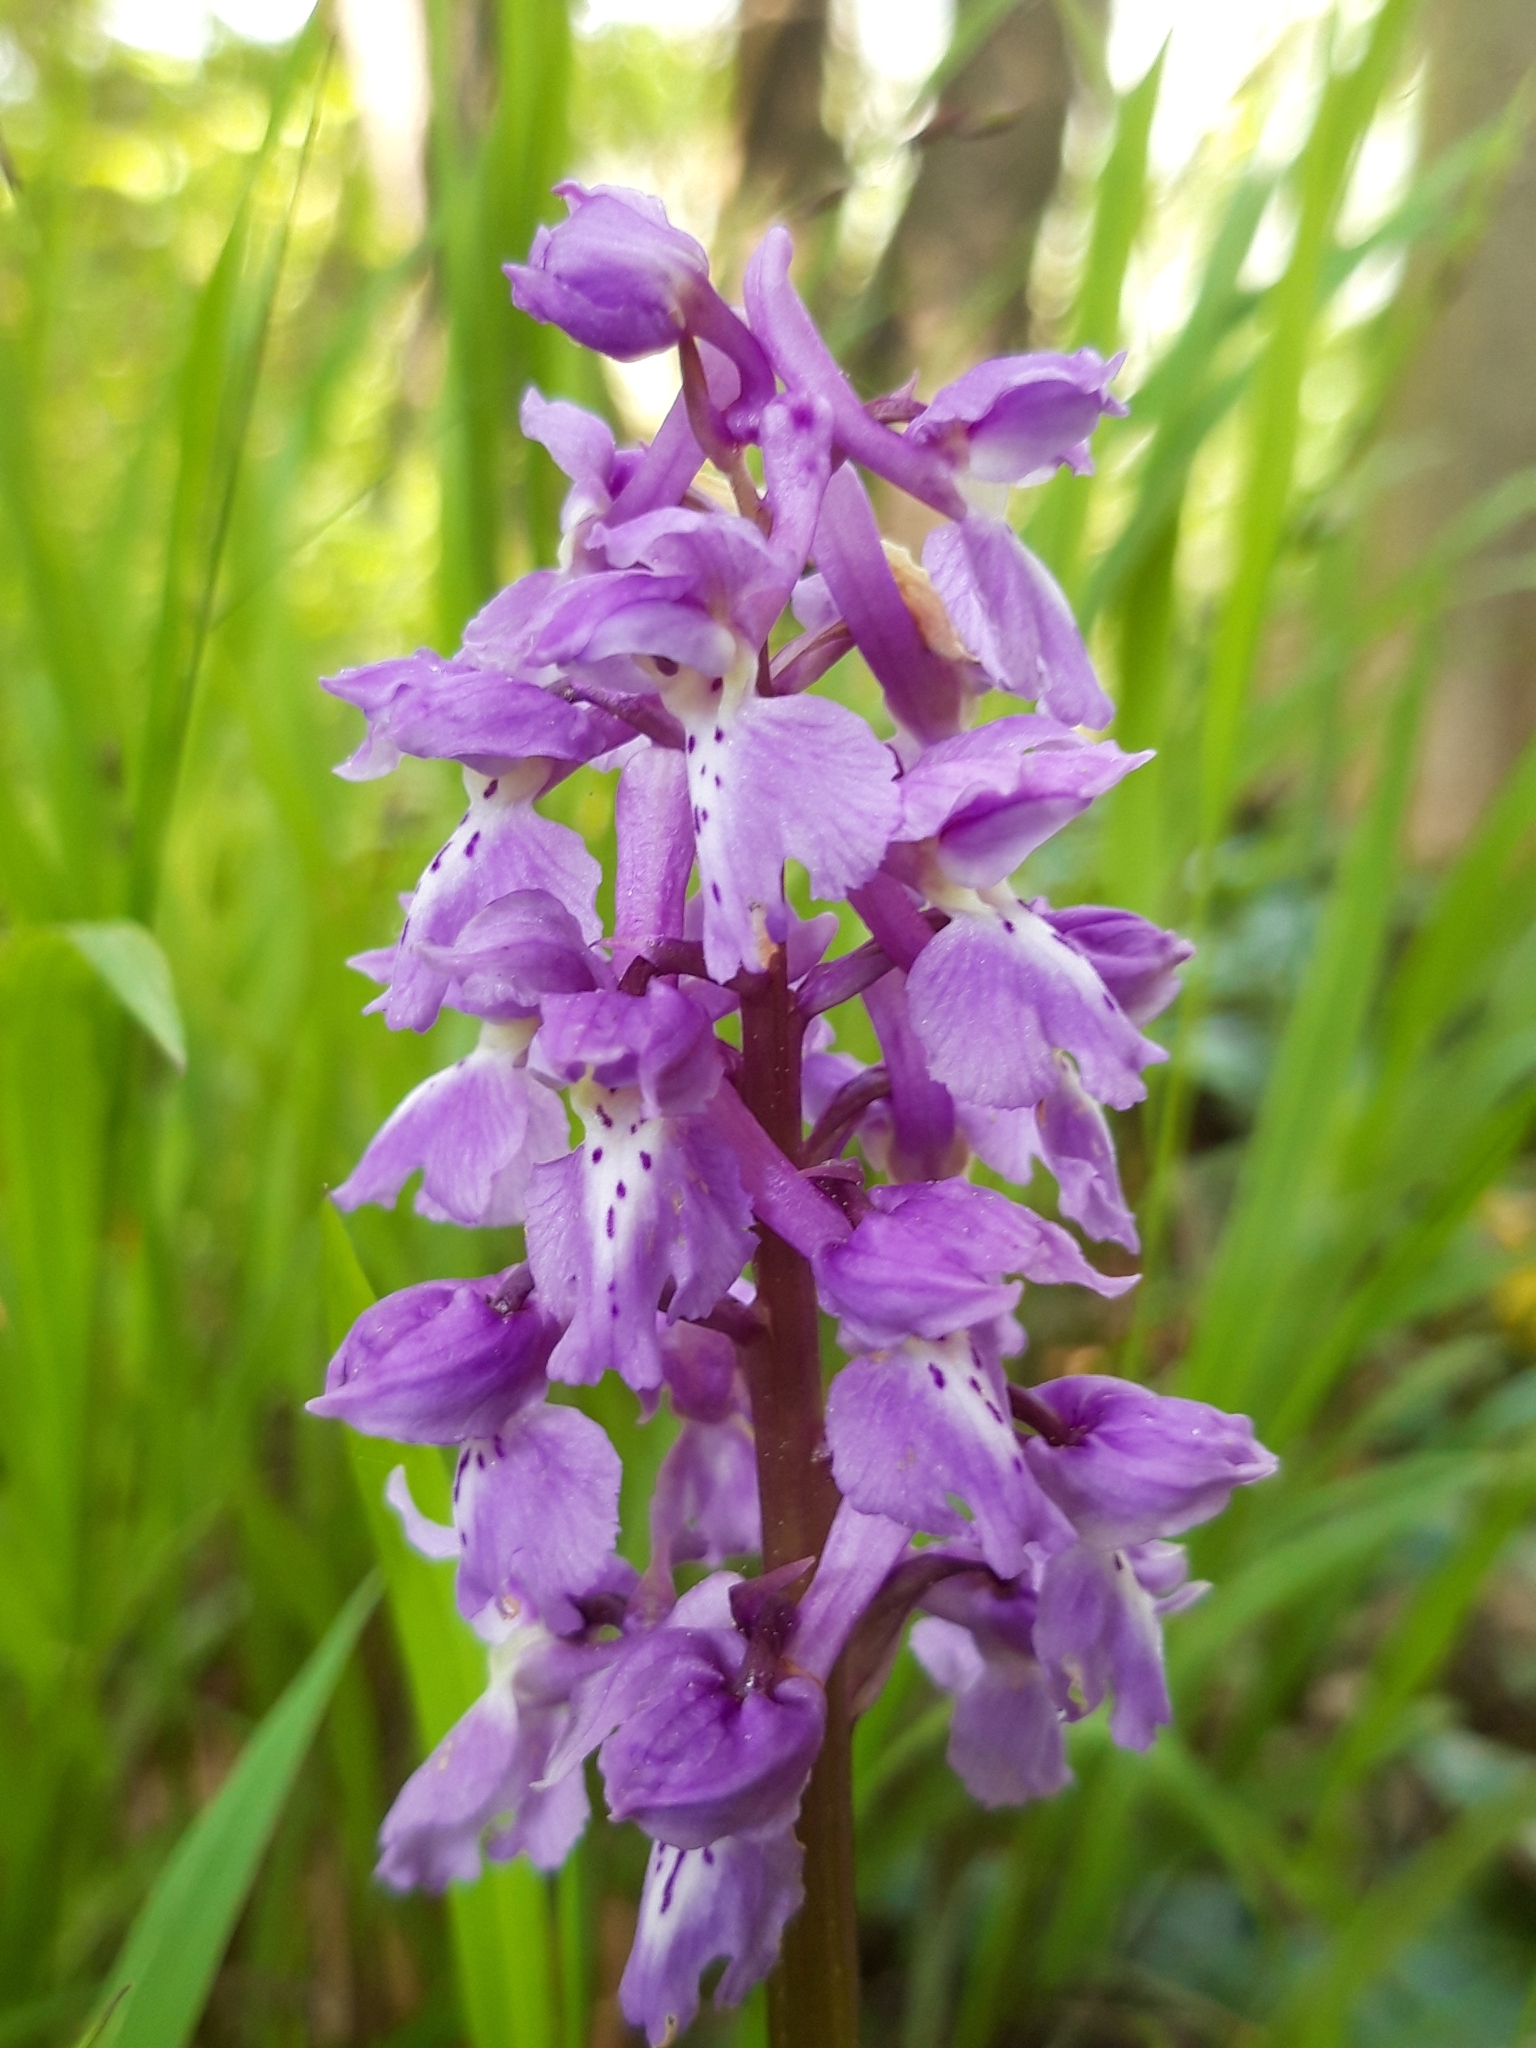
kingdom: Plantae
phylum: Tracheophyta
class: Liliopsida
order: Asparagales
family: Orchidaceae
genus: Orchis
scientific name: Orchis mascula
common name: Early-purple orchid
